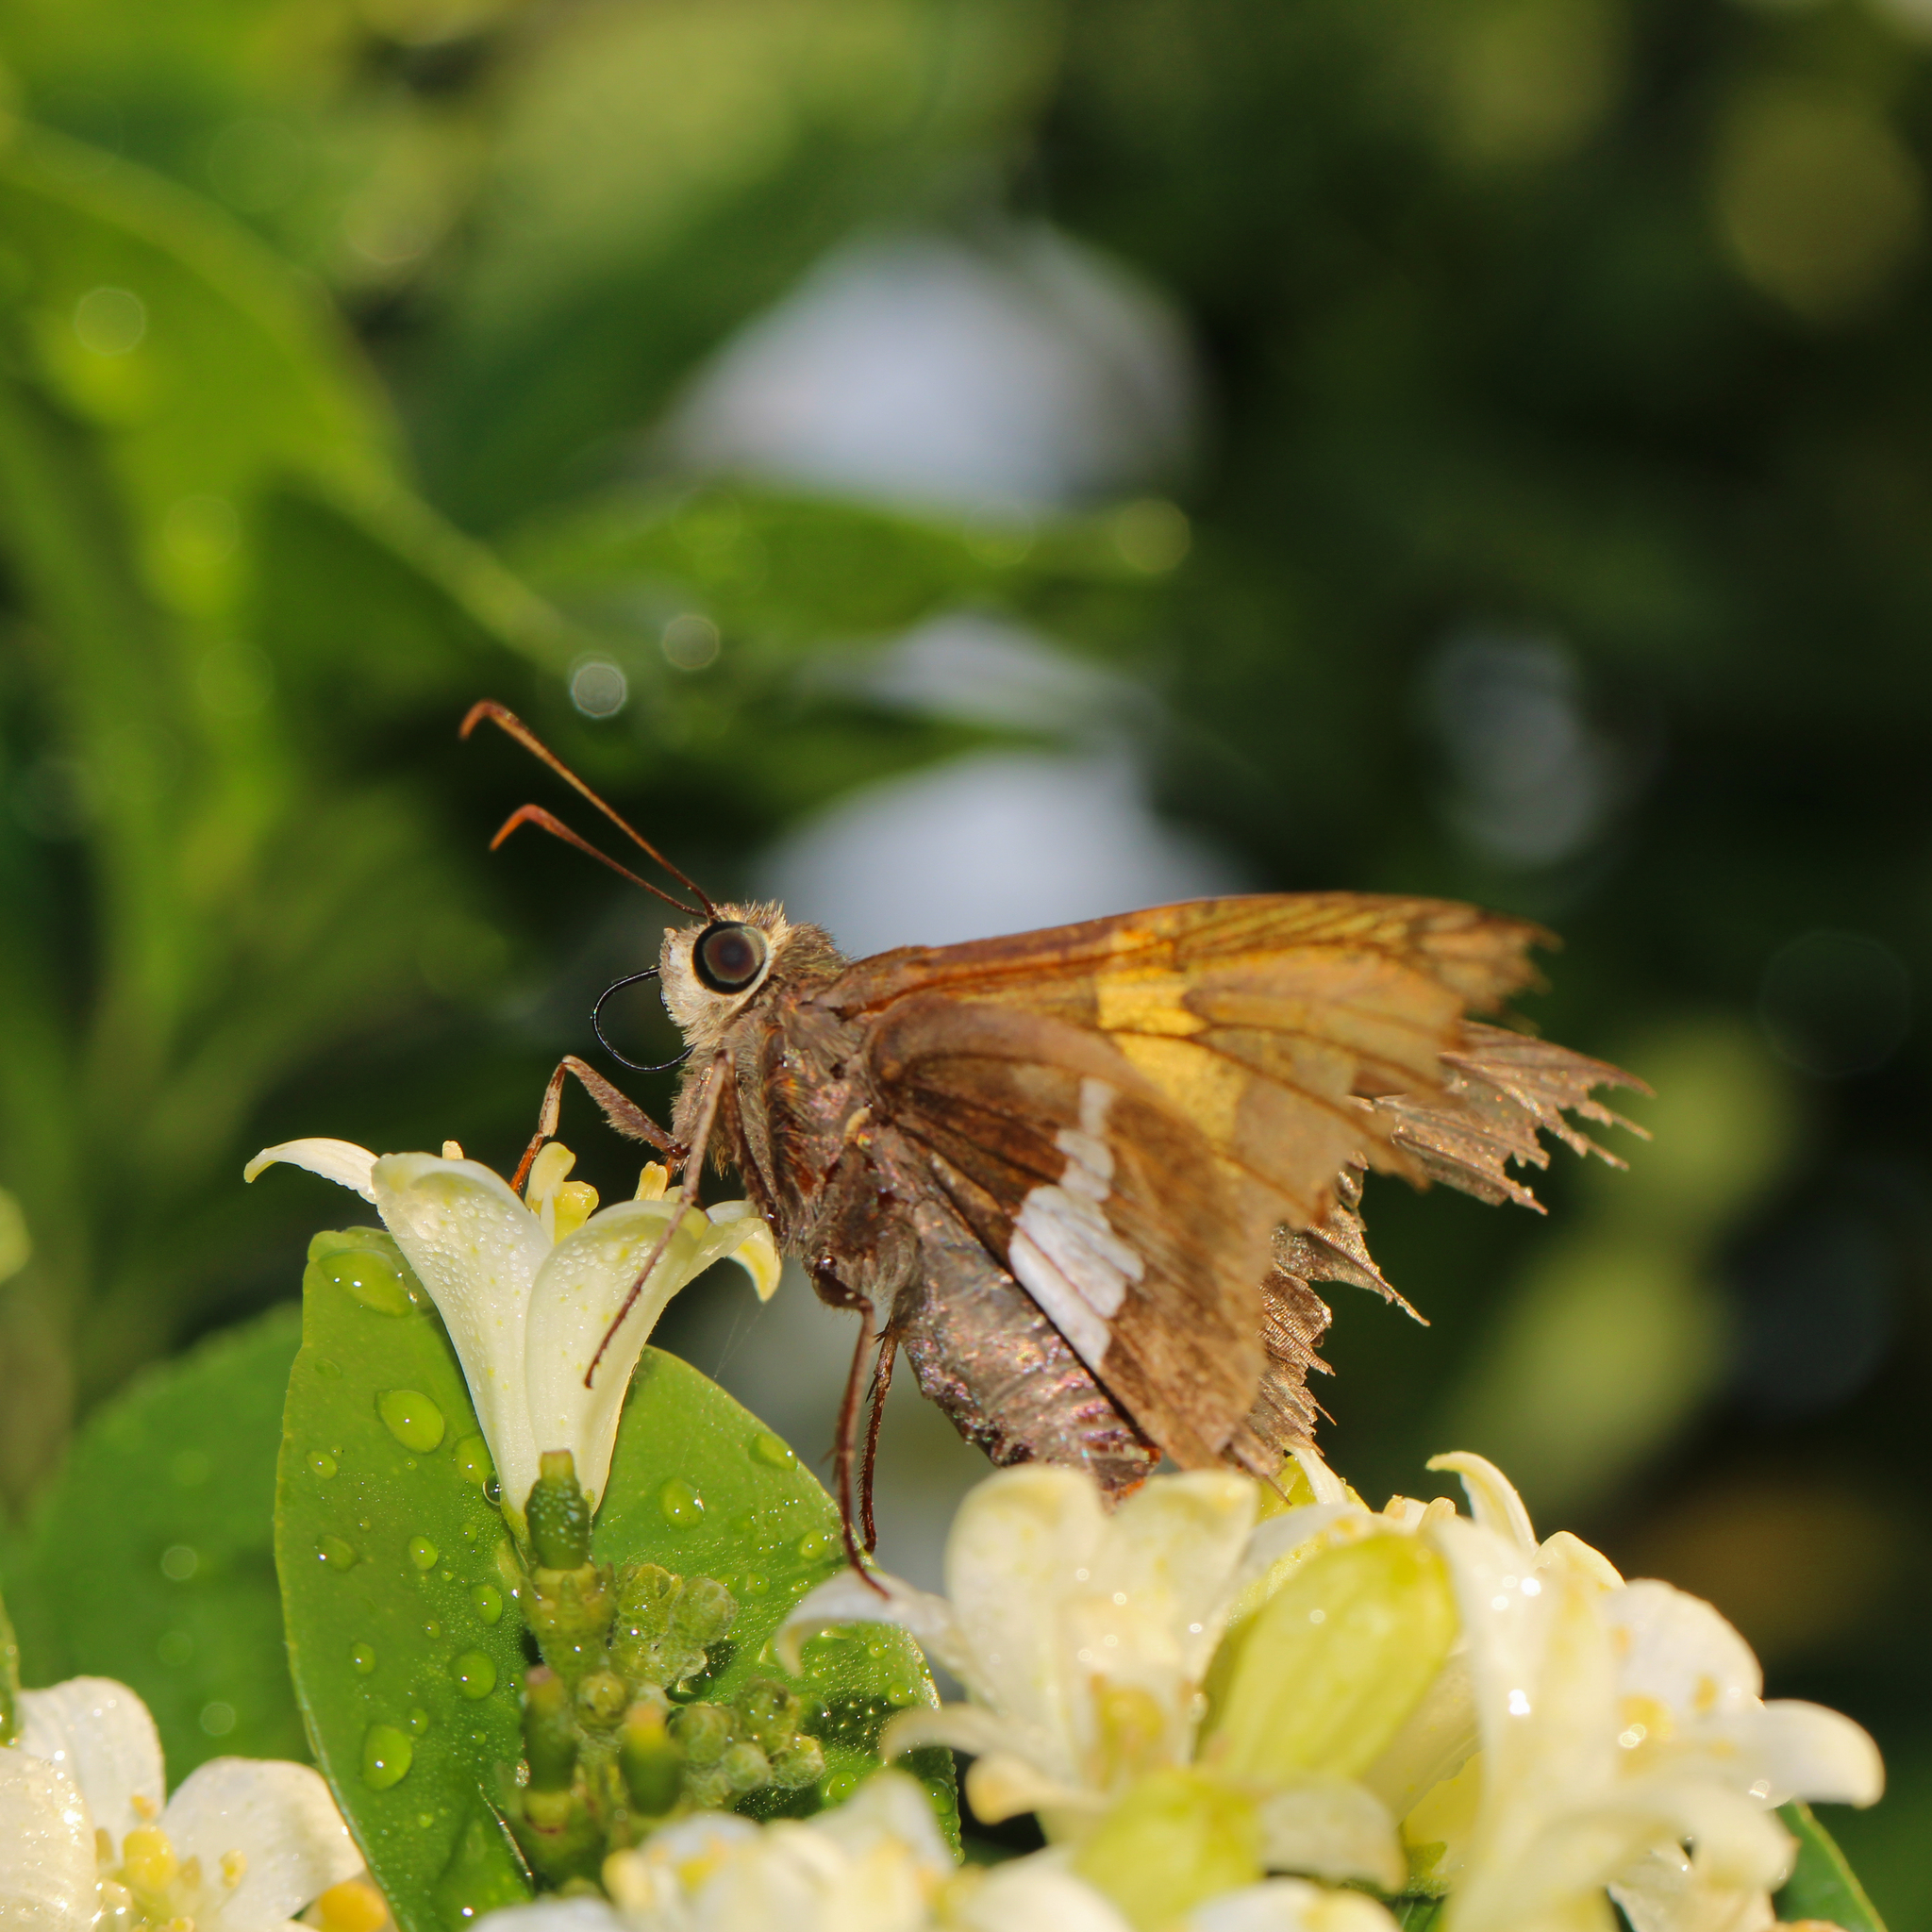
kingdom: Animalia
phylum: Arthropoda
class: Insecta
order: Lepidoptera
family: Hesperiidae
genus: Epargyreus
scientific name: Epargyreus clarus
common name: Silver-spotted skipper
